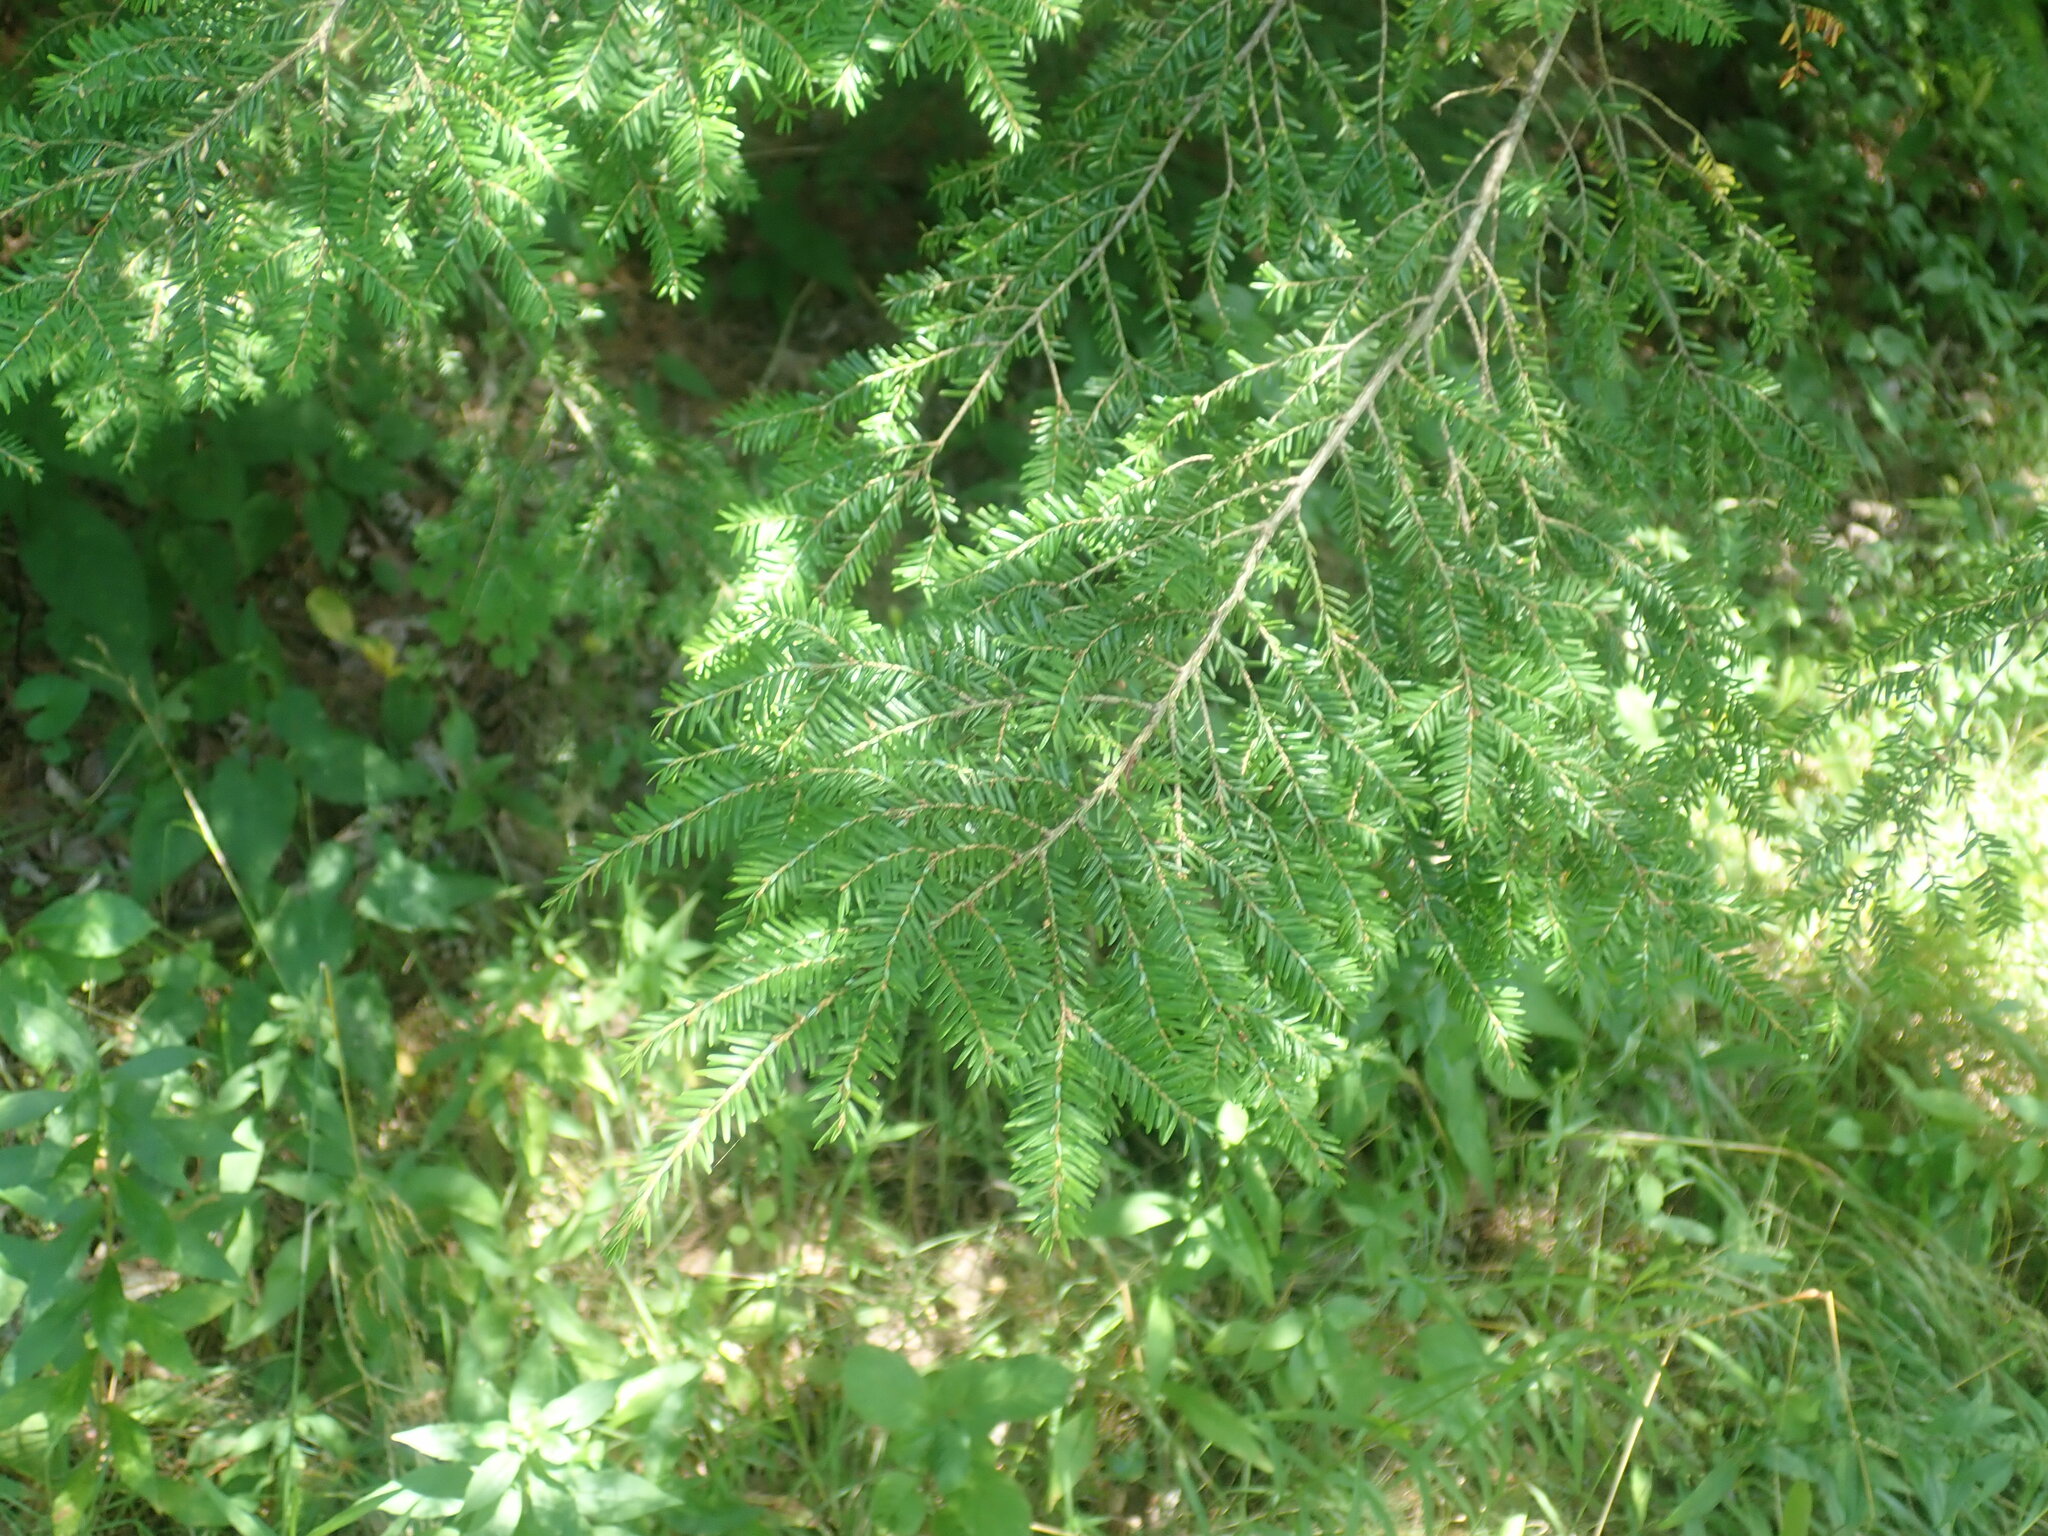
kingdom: Plantae
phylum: Tracheophyta
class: Pinopsida
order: Pinales
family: Pinaceae
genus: Tsuga
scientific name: Tsuga canadensis
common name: Eastern hemlock
